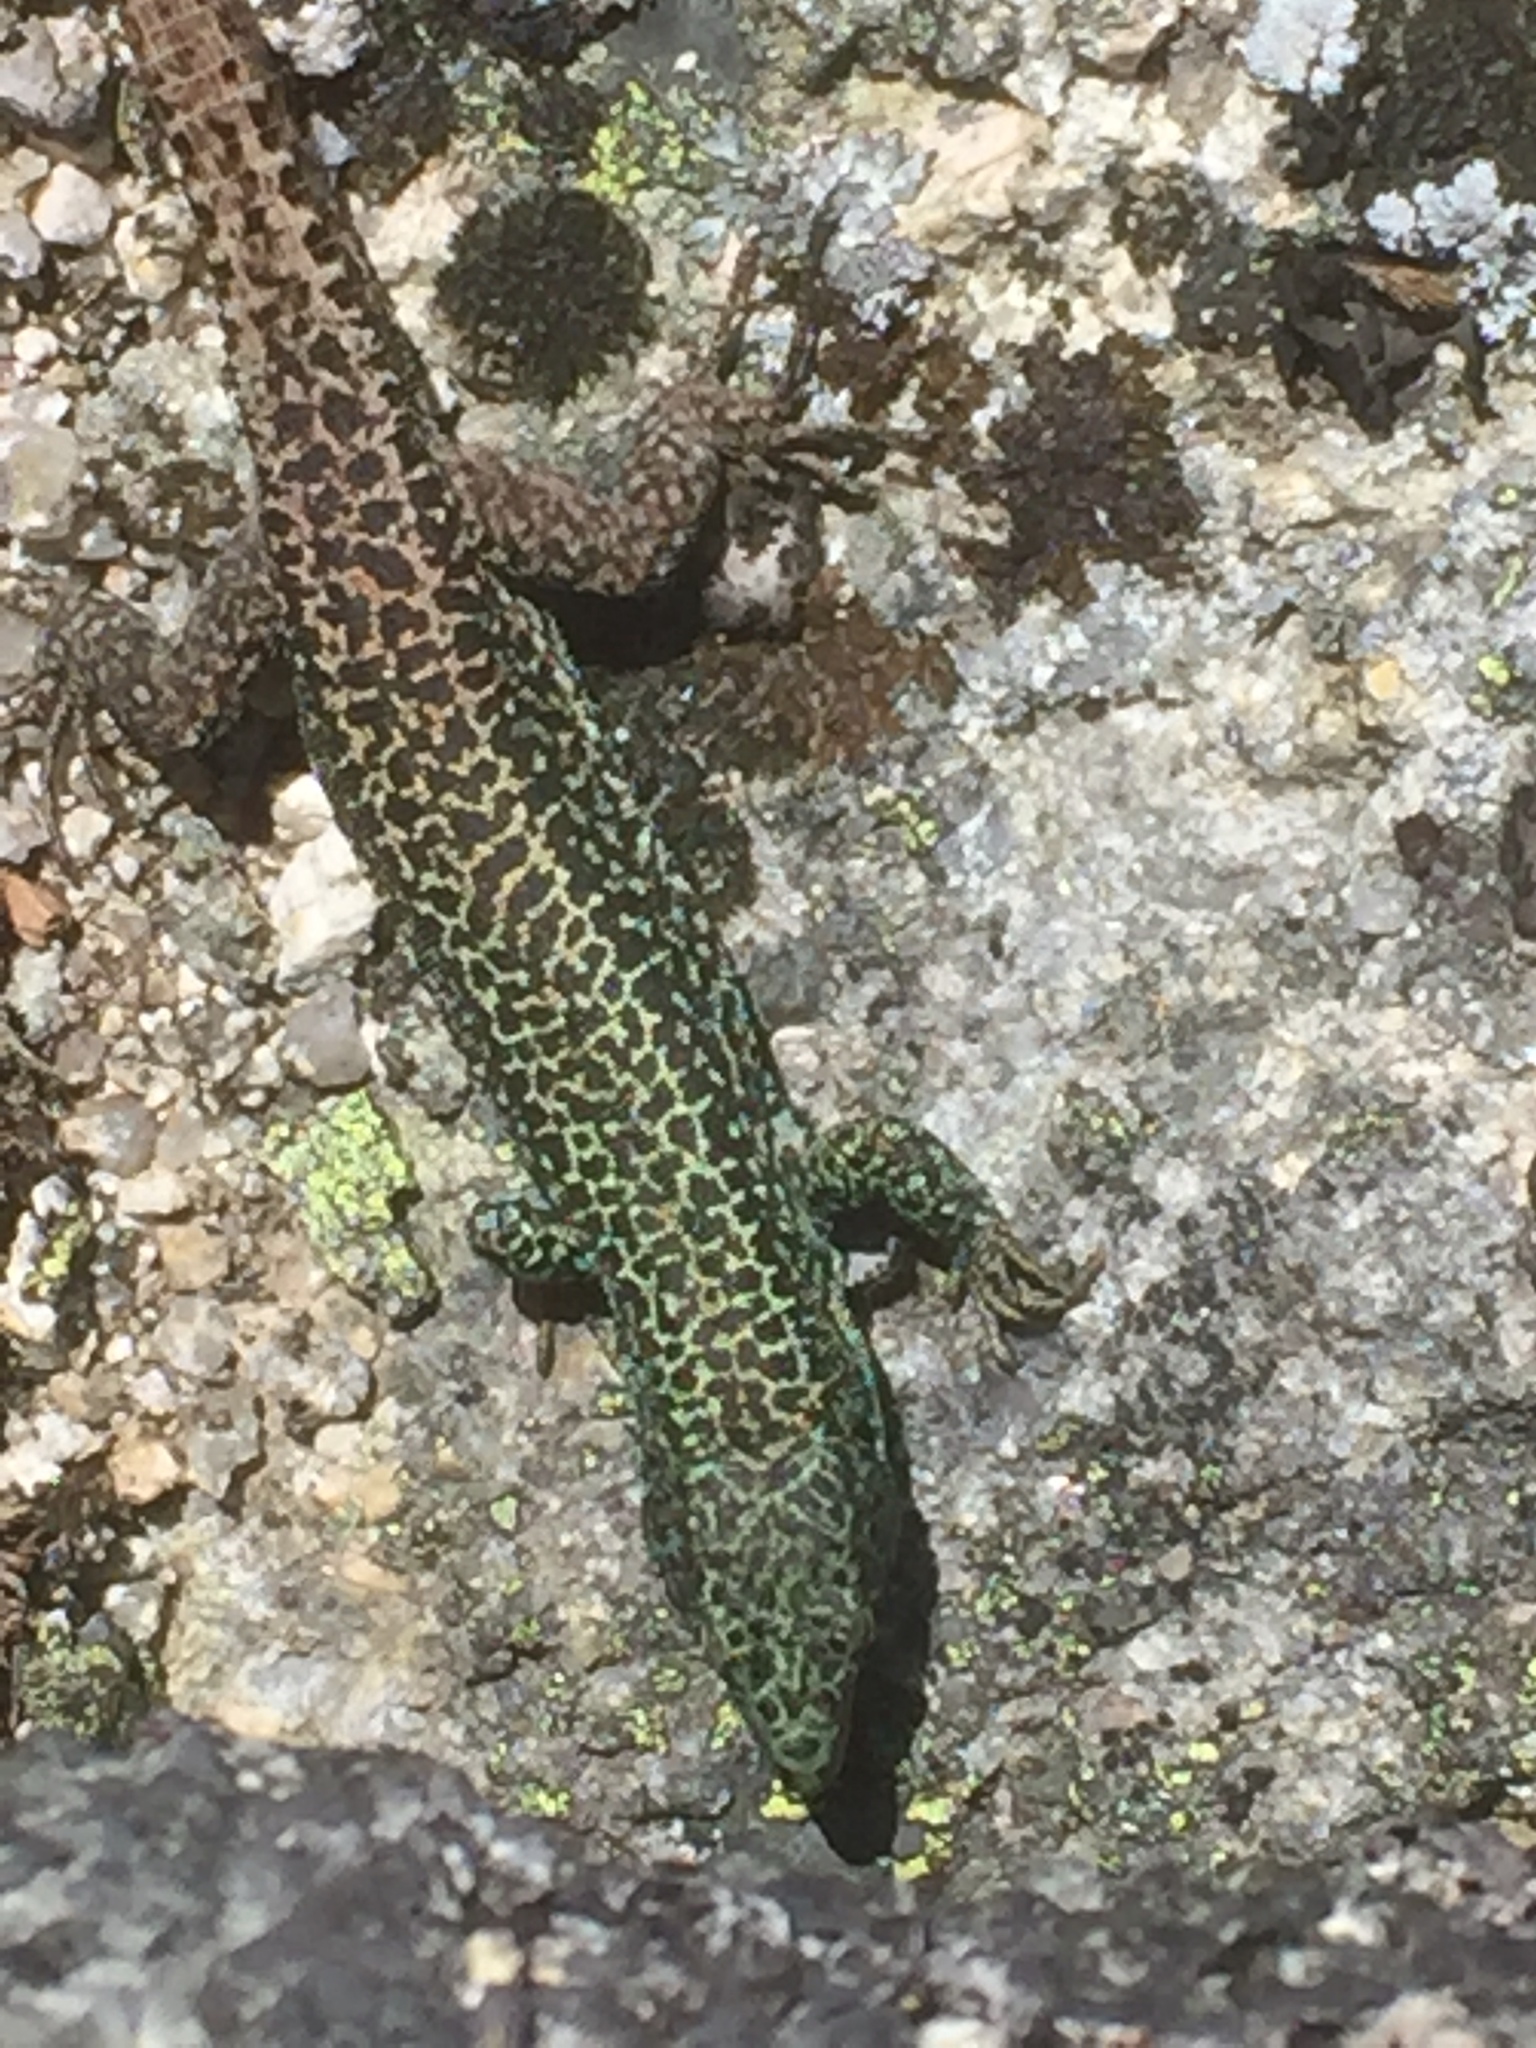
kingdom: Animalia
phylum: Chordata
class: Squamata
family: Lacertidae
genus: Iberolacerta
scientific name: Iberolacerta monticola
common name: Iberian mountain lizard
